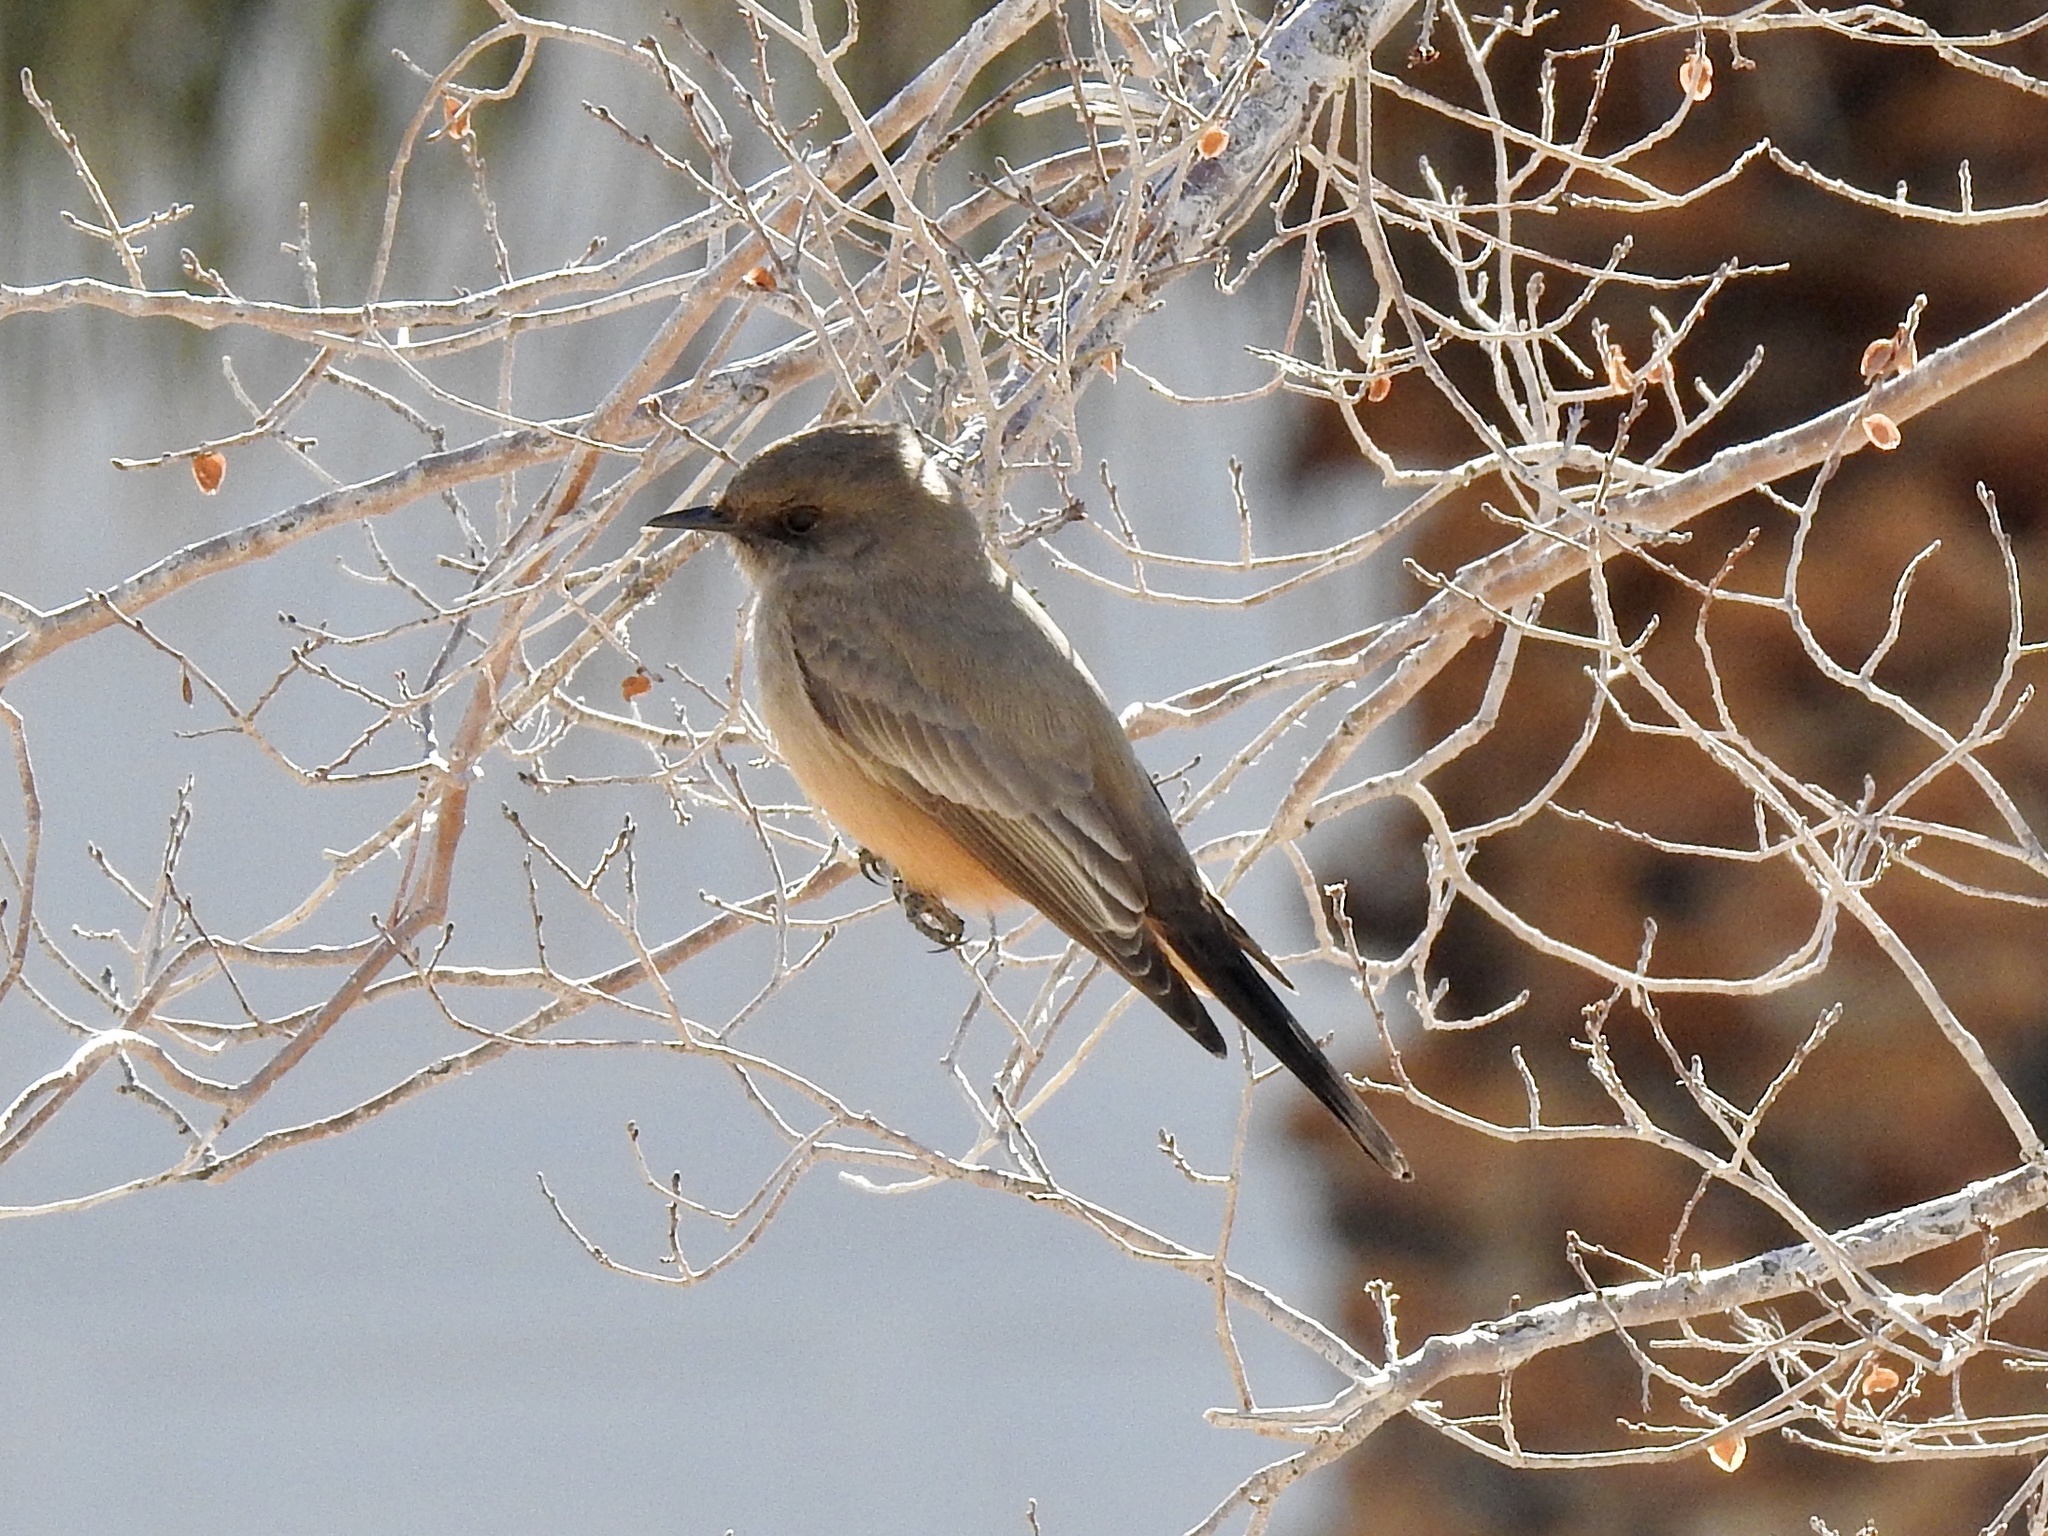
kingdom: Animalia
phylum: Chordata
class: Aves
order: Passeriformes
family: Tyrannidae
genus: Sayornis
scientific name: Sayornis saya
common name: Say's phoebe
